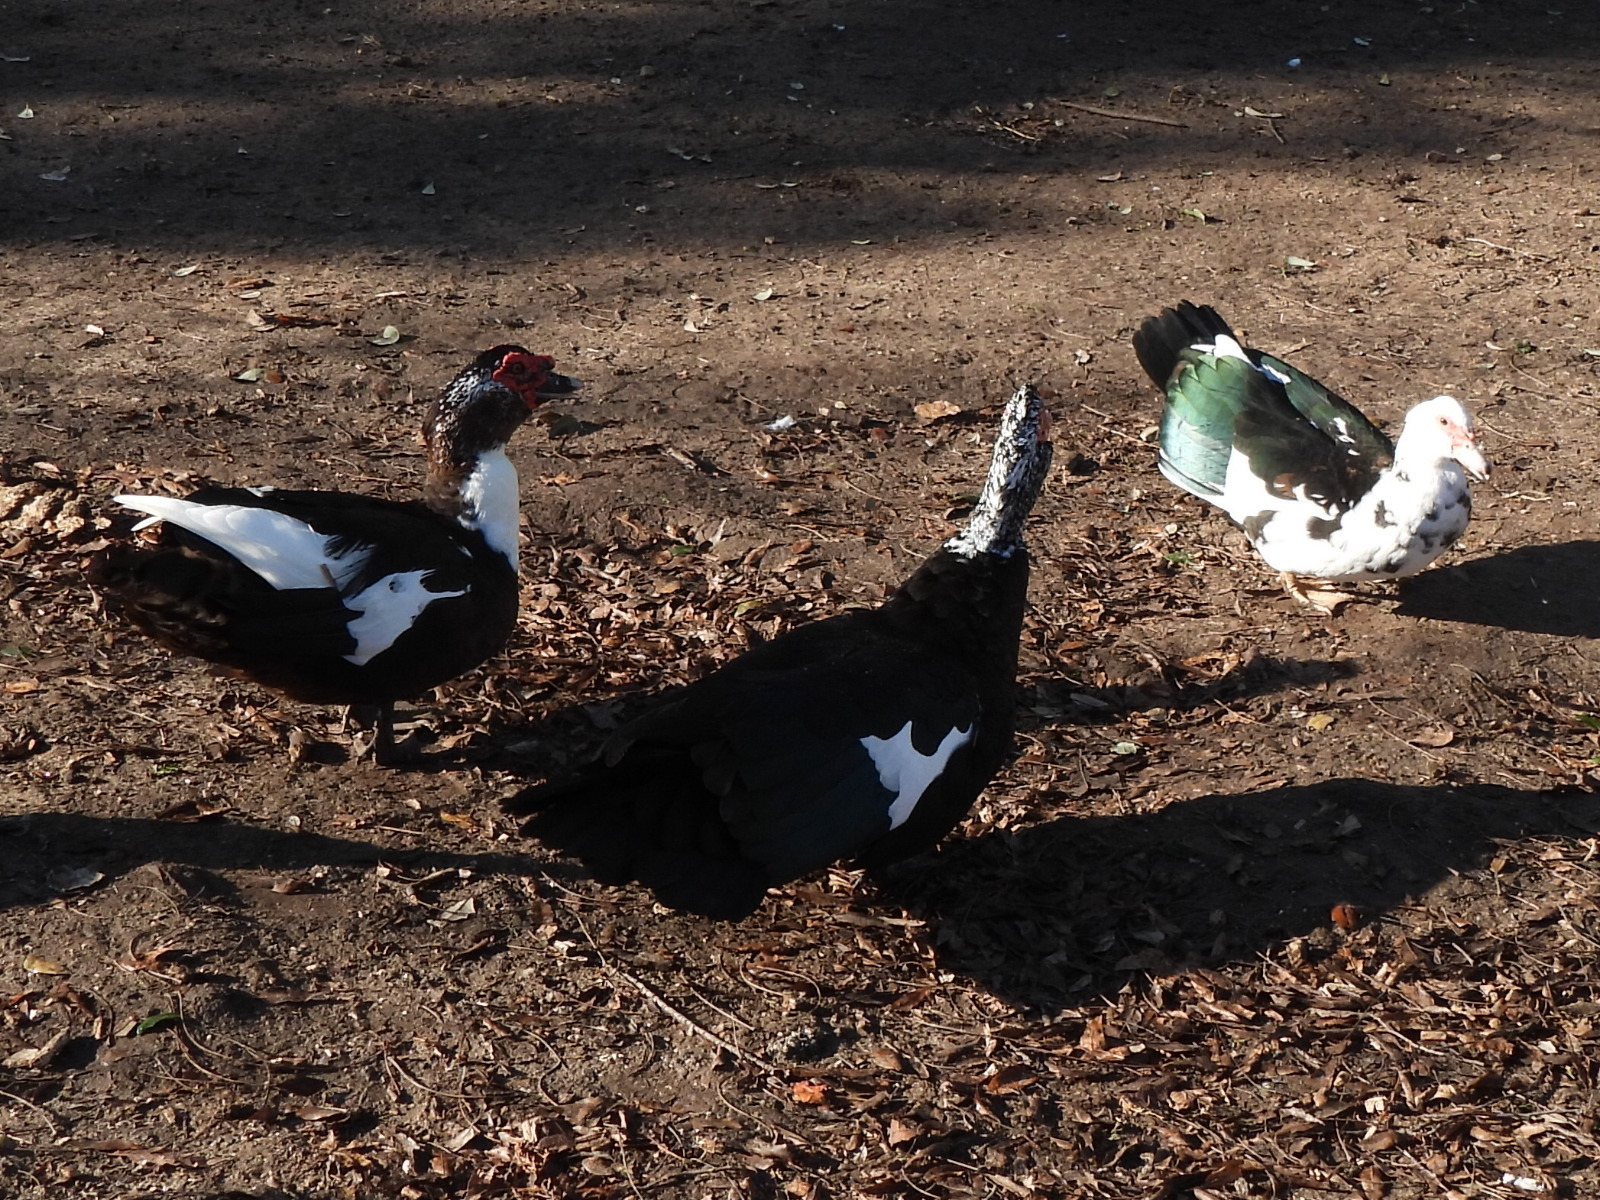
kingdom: Animalia
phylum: Chordata
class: Aves
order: Anseriformes
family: Anatidae
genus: Cairina
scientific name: Cairina moschata
